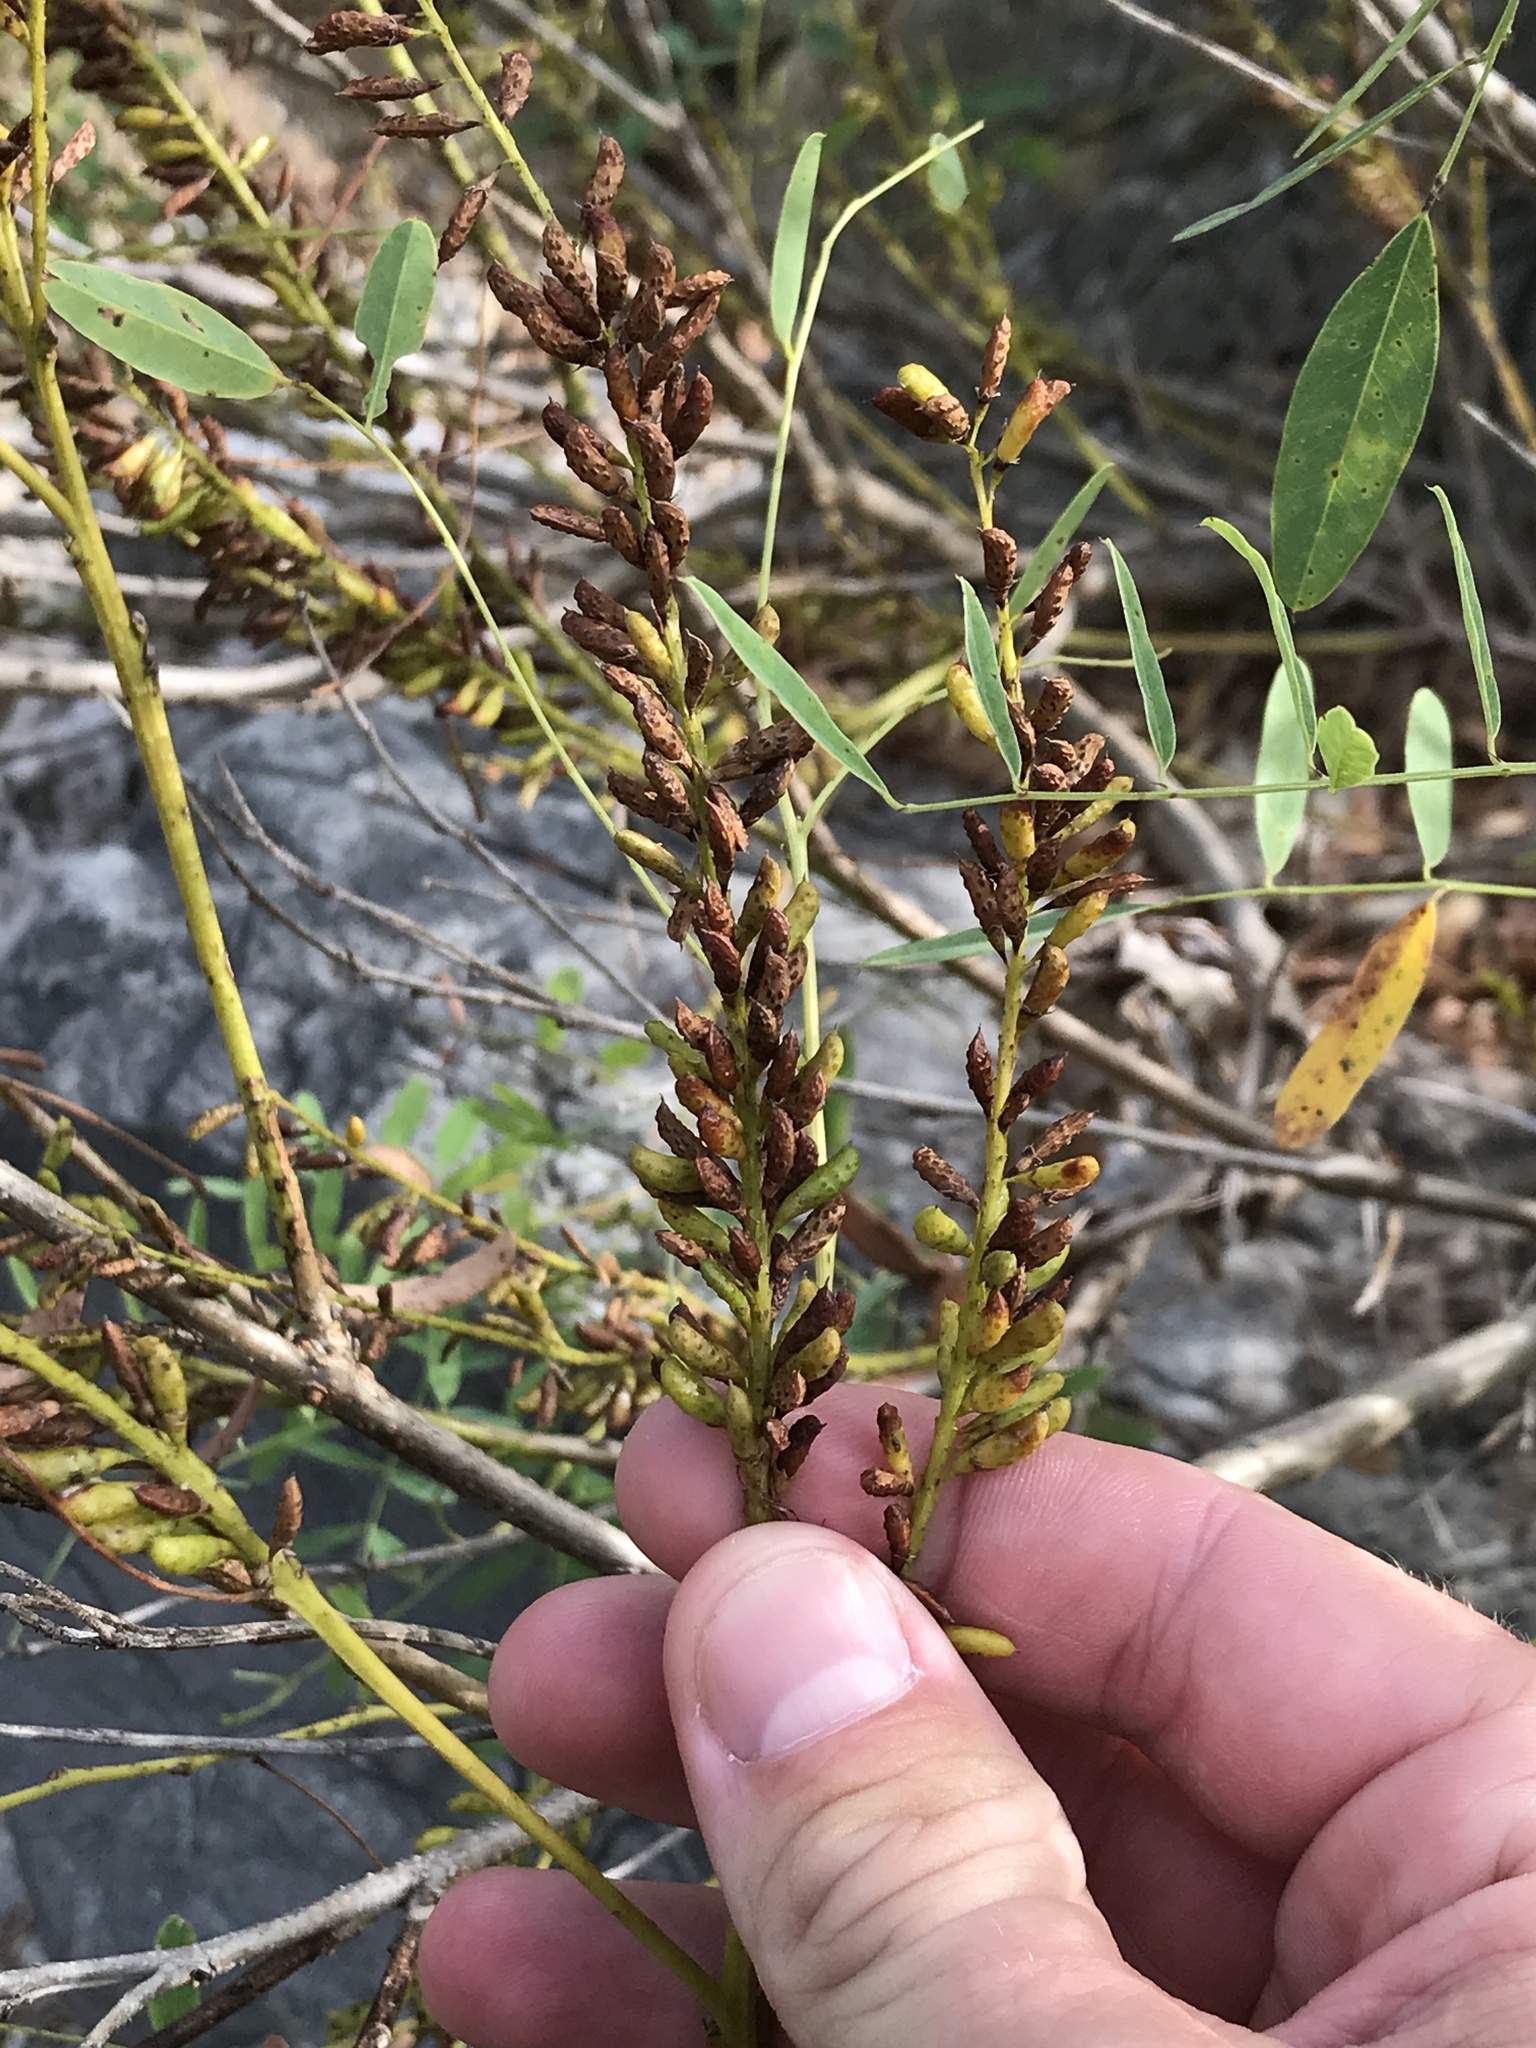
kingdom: Plantae
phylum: Tracheophyta
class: Magnoliopsida
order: Fabales
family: Fabaceae
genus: Amorpha
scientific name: Amorpha fruticosa
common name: False indigo
